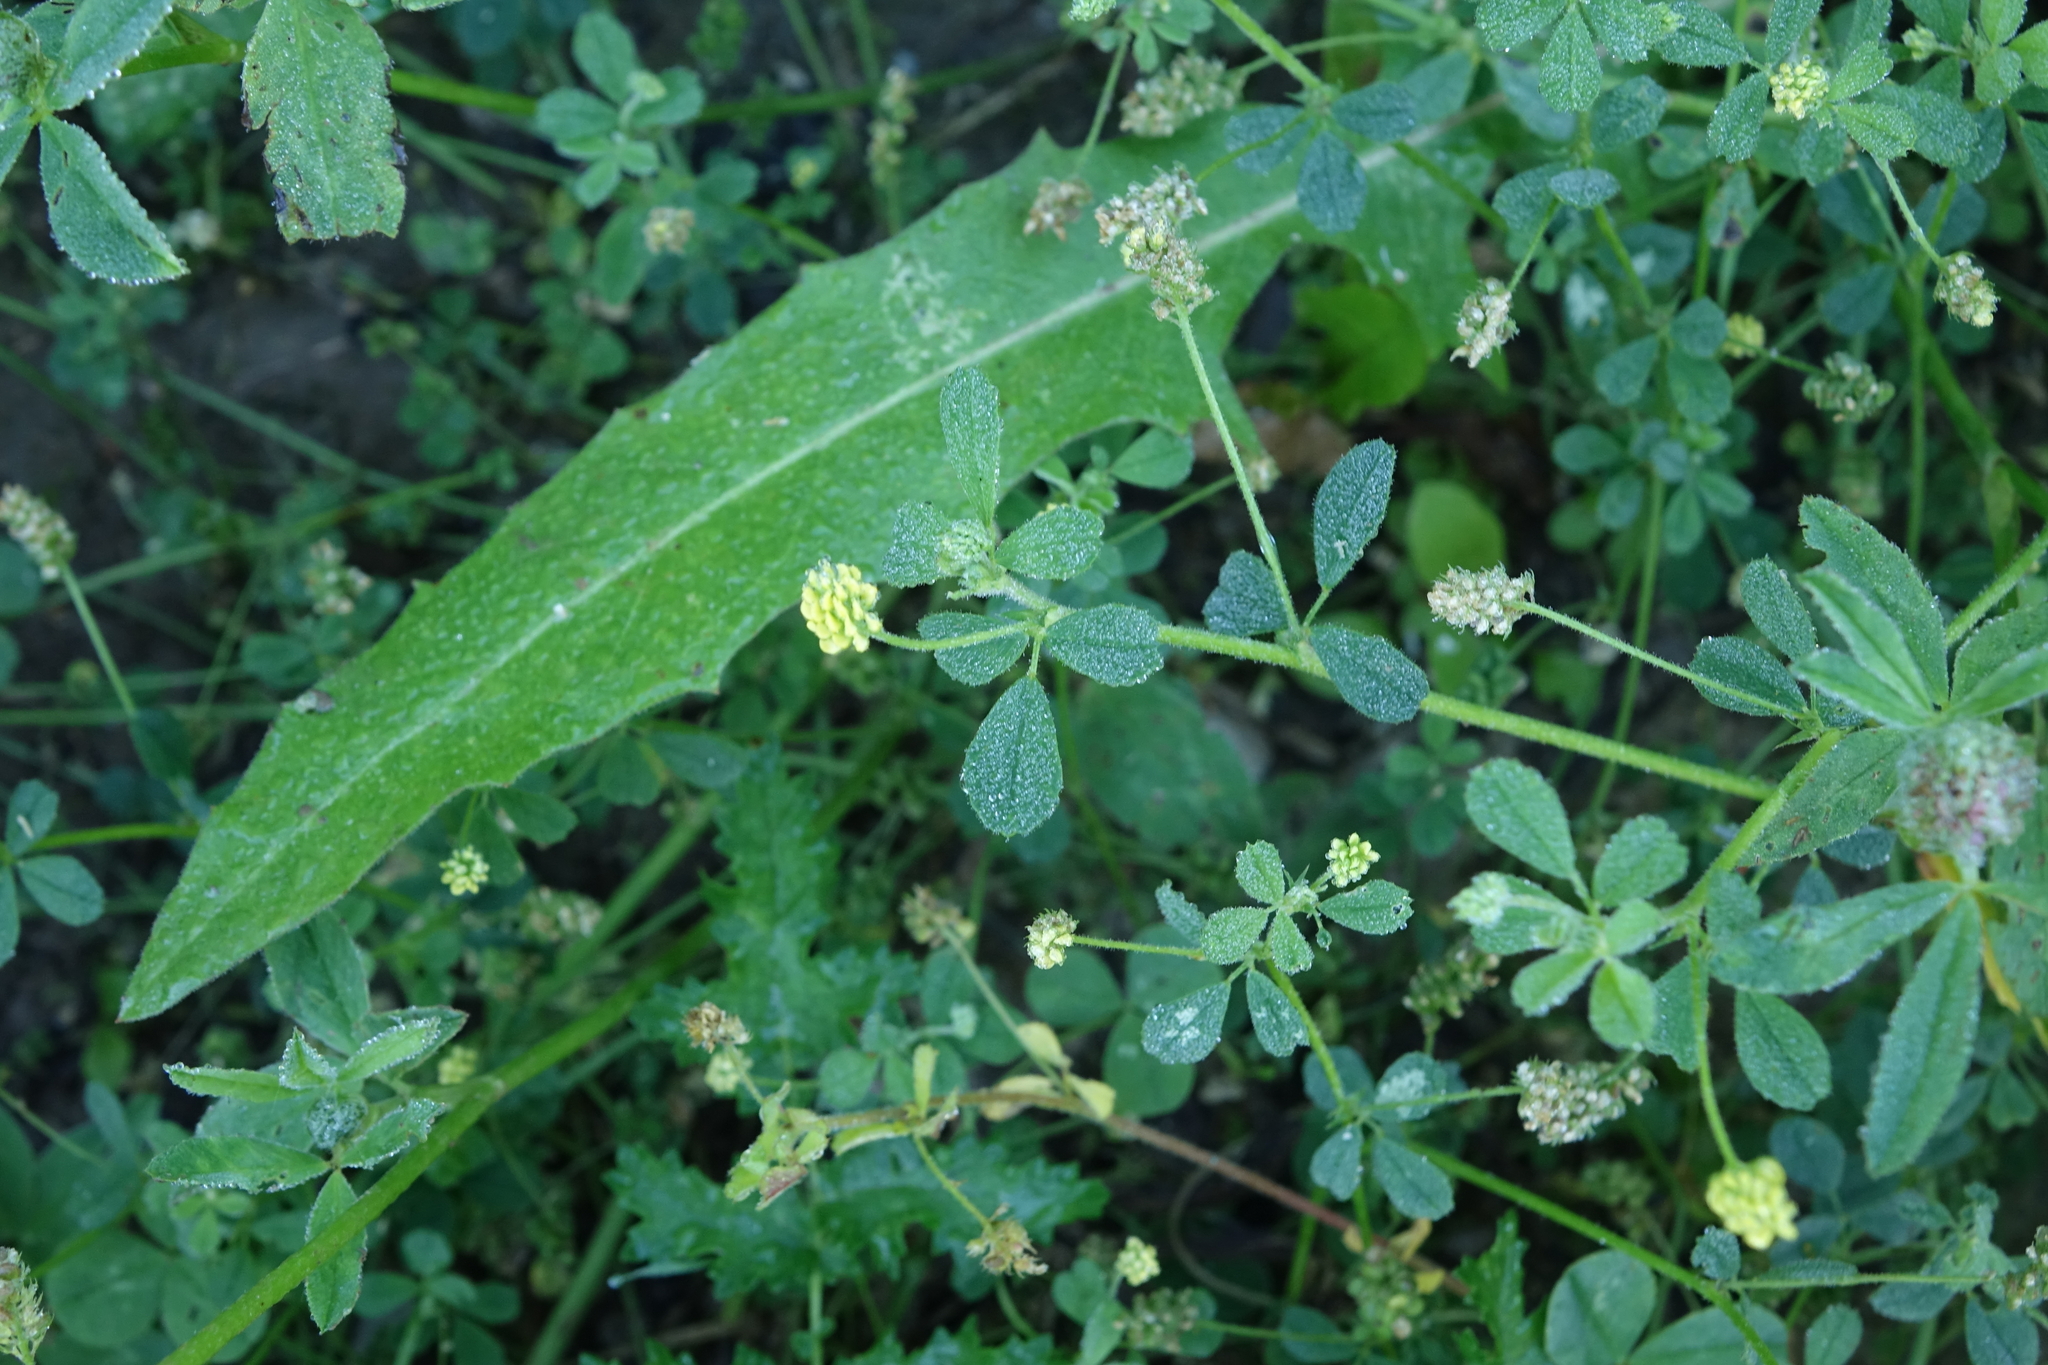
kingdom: Plantae
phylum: Tracheophyta
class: Magnoliopsida
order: Fabales
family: Fabaceae
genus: Medicago
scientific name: Medicago lupulina
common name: Black medick
